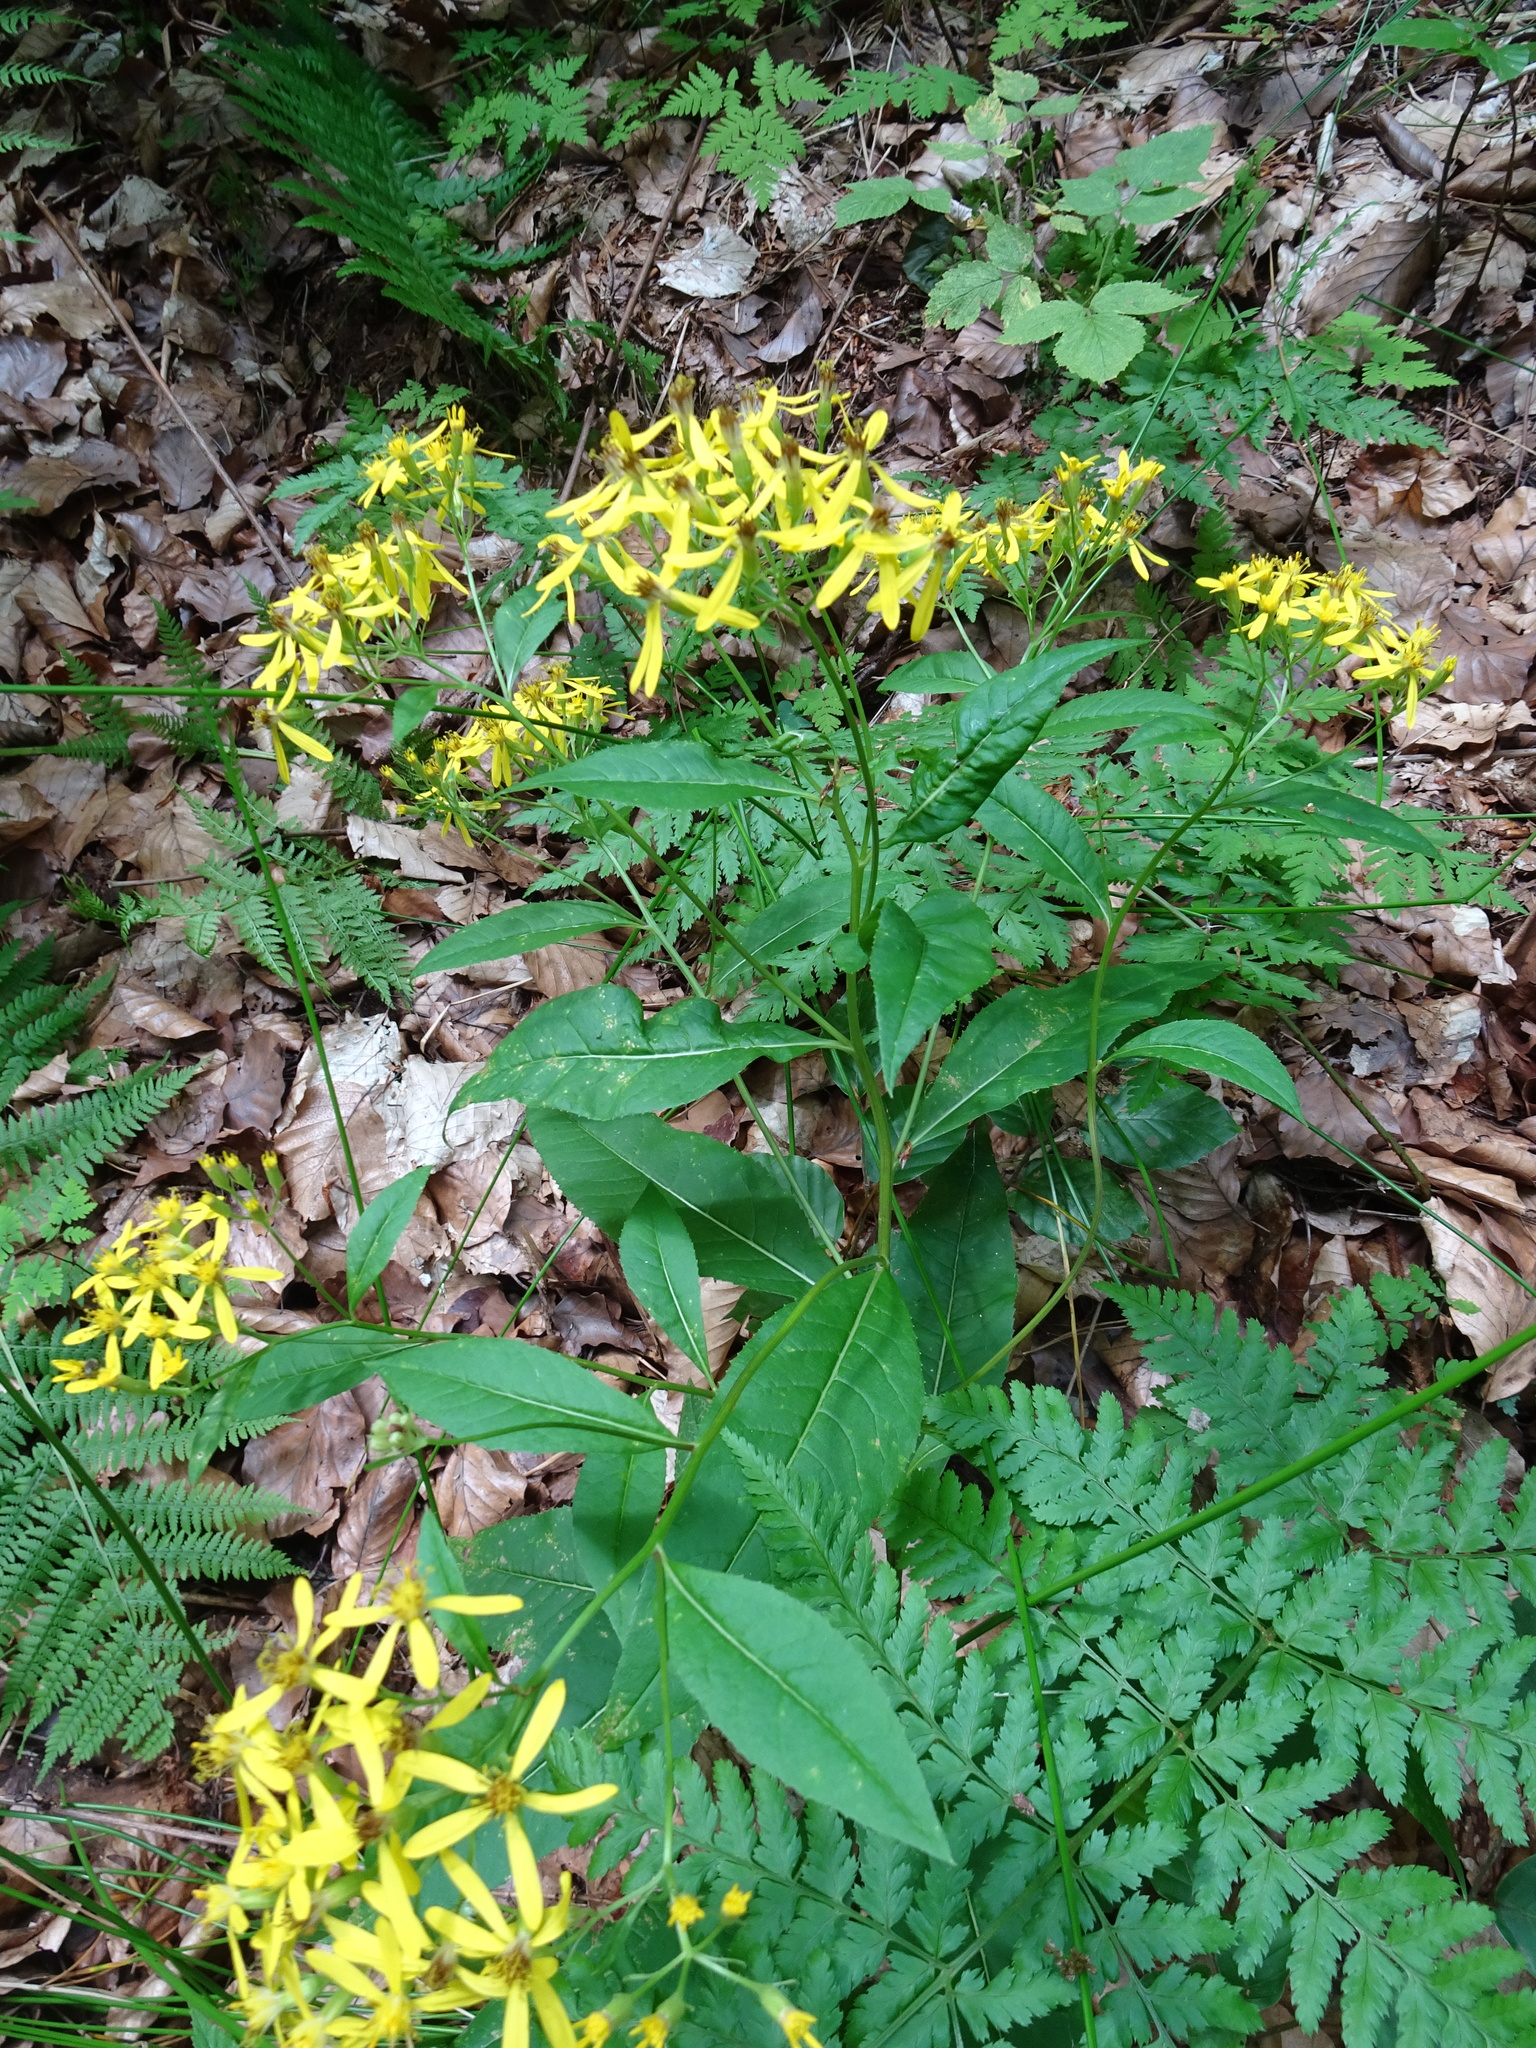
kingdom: Plantae
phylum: Tracheophyta
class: Magnoliopsida
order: Asterales
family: Asteraceae
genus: Senecio
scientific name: Senecio ovatus
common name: Wood ragwort
